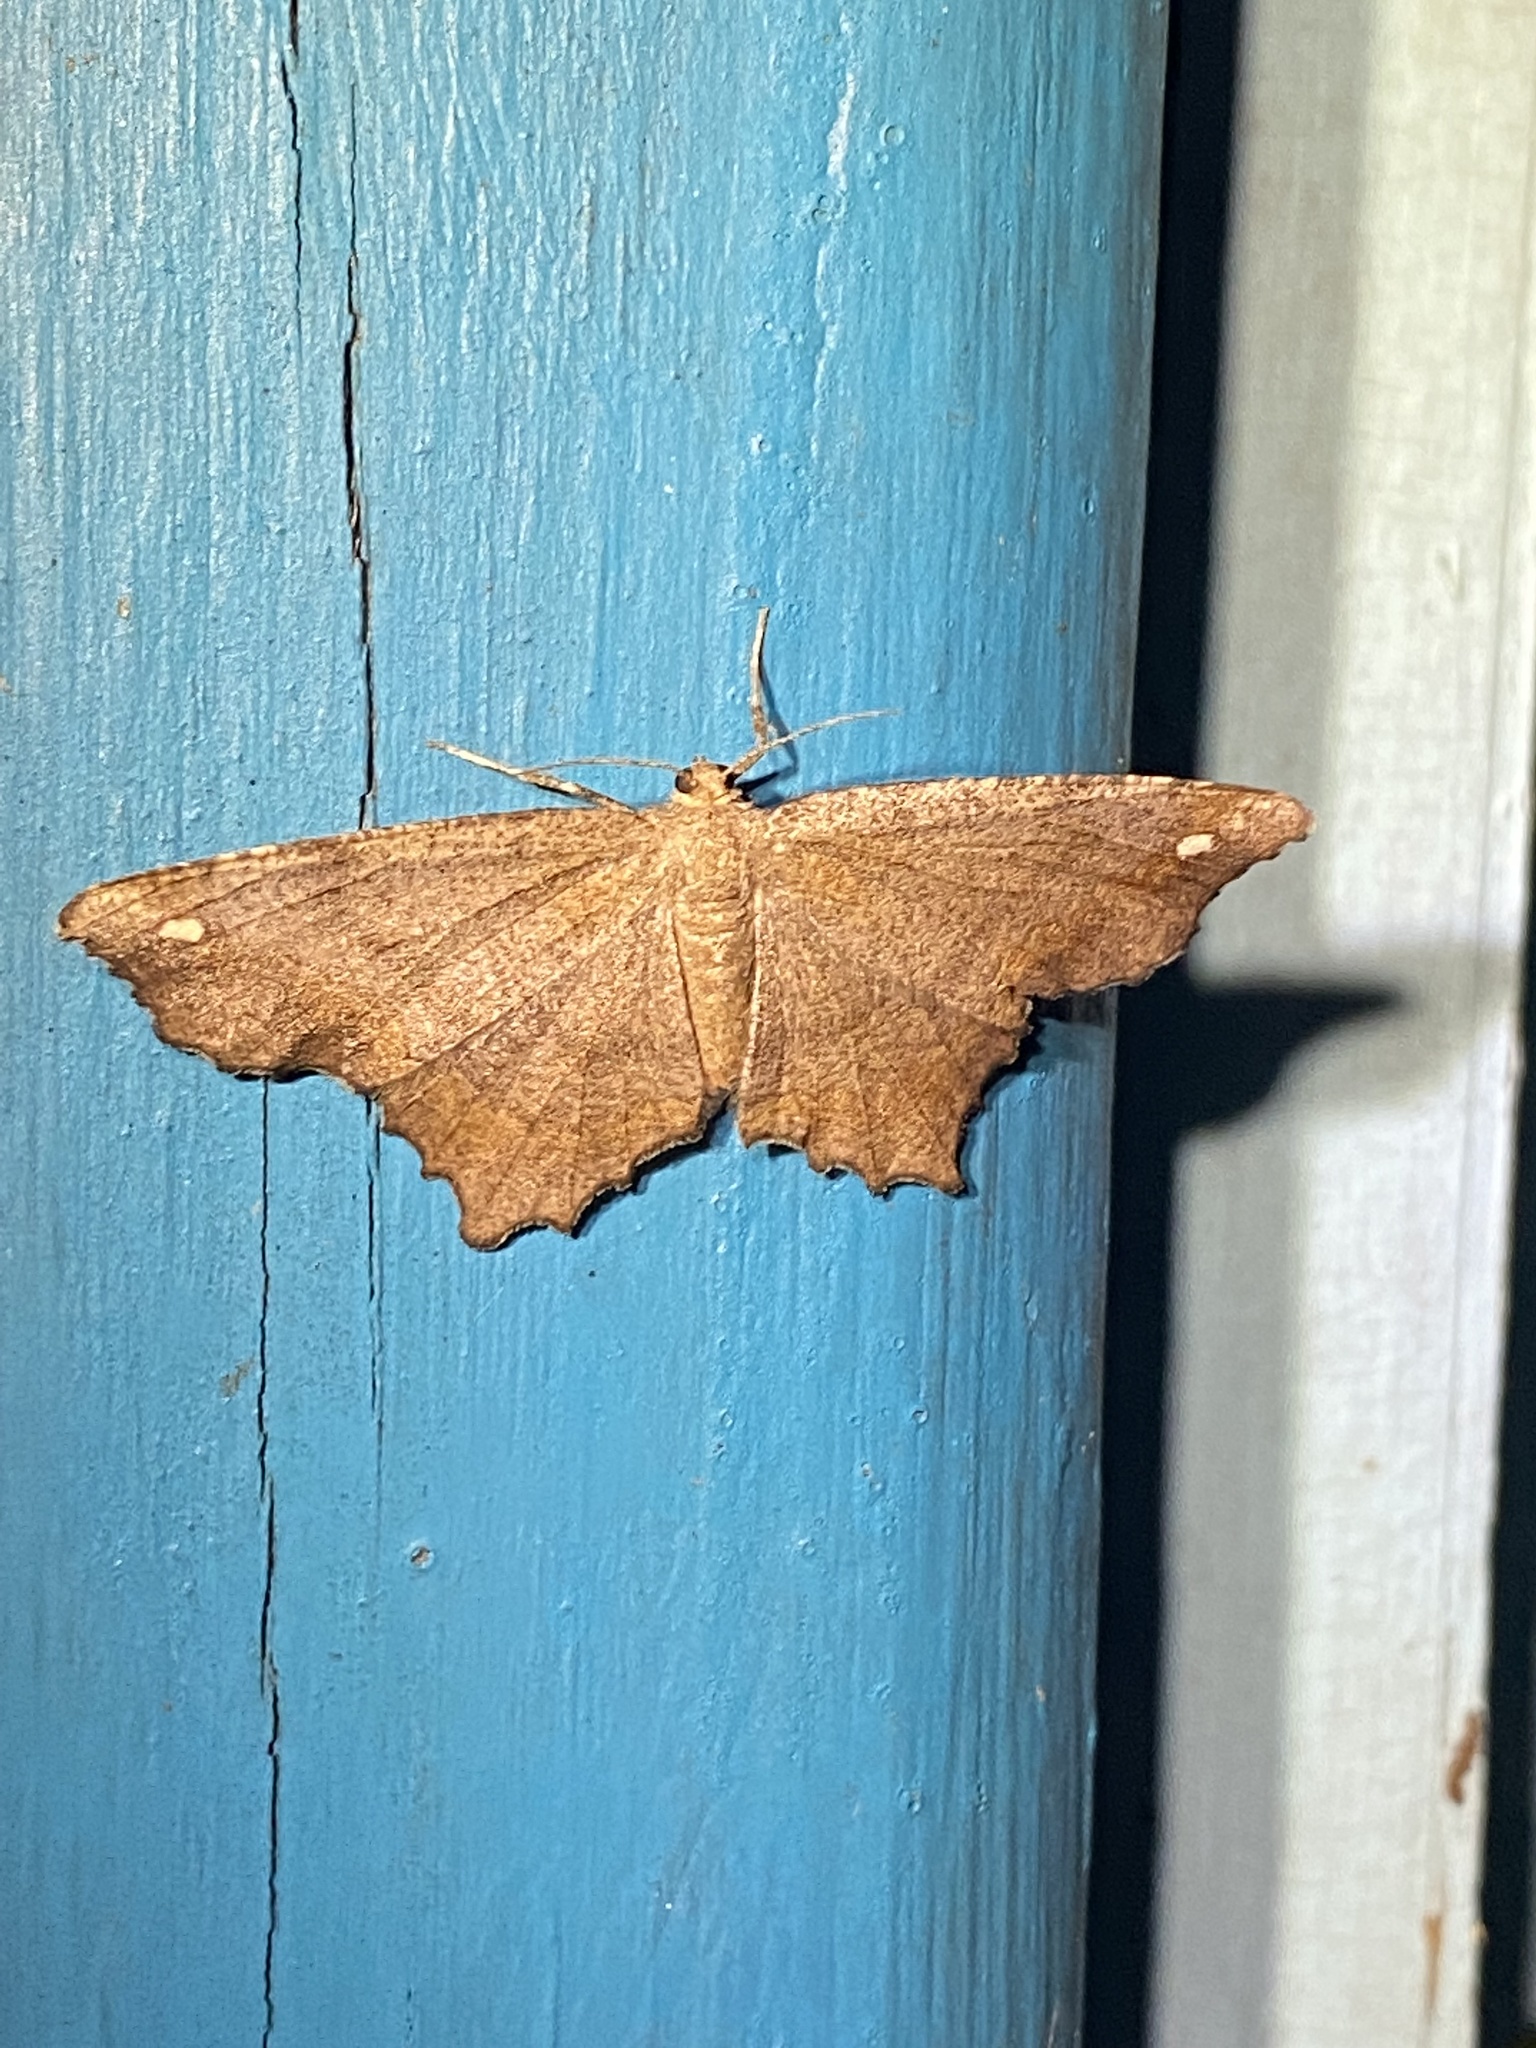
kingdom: Animalia
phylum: Arthropoda
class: Insecta
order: Lepidoptera
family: Geometridae
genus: Hypagyrtis
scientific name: Hypagyrtis esther
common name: Esther moth
